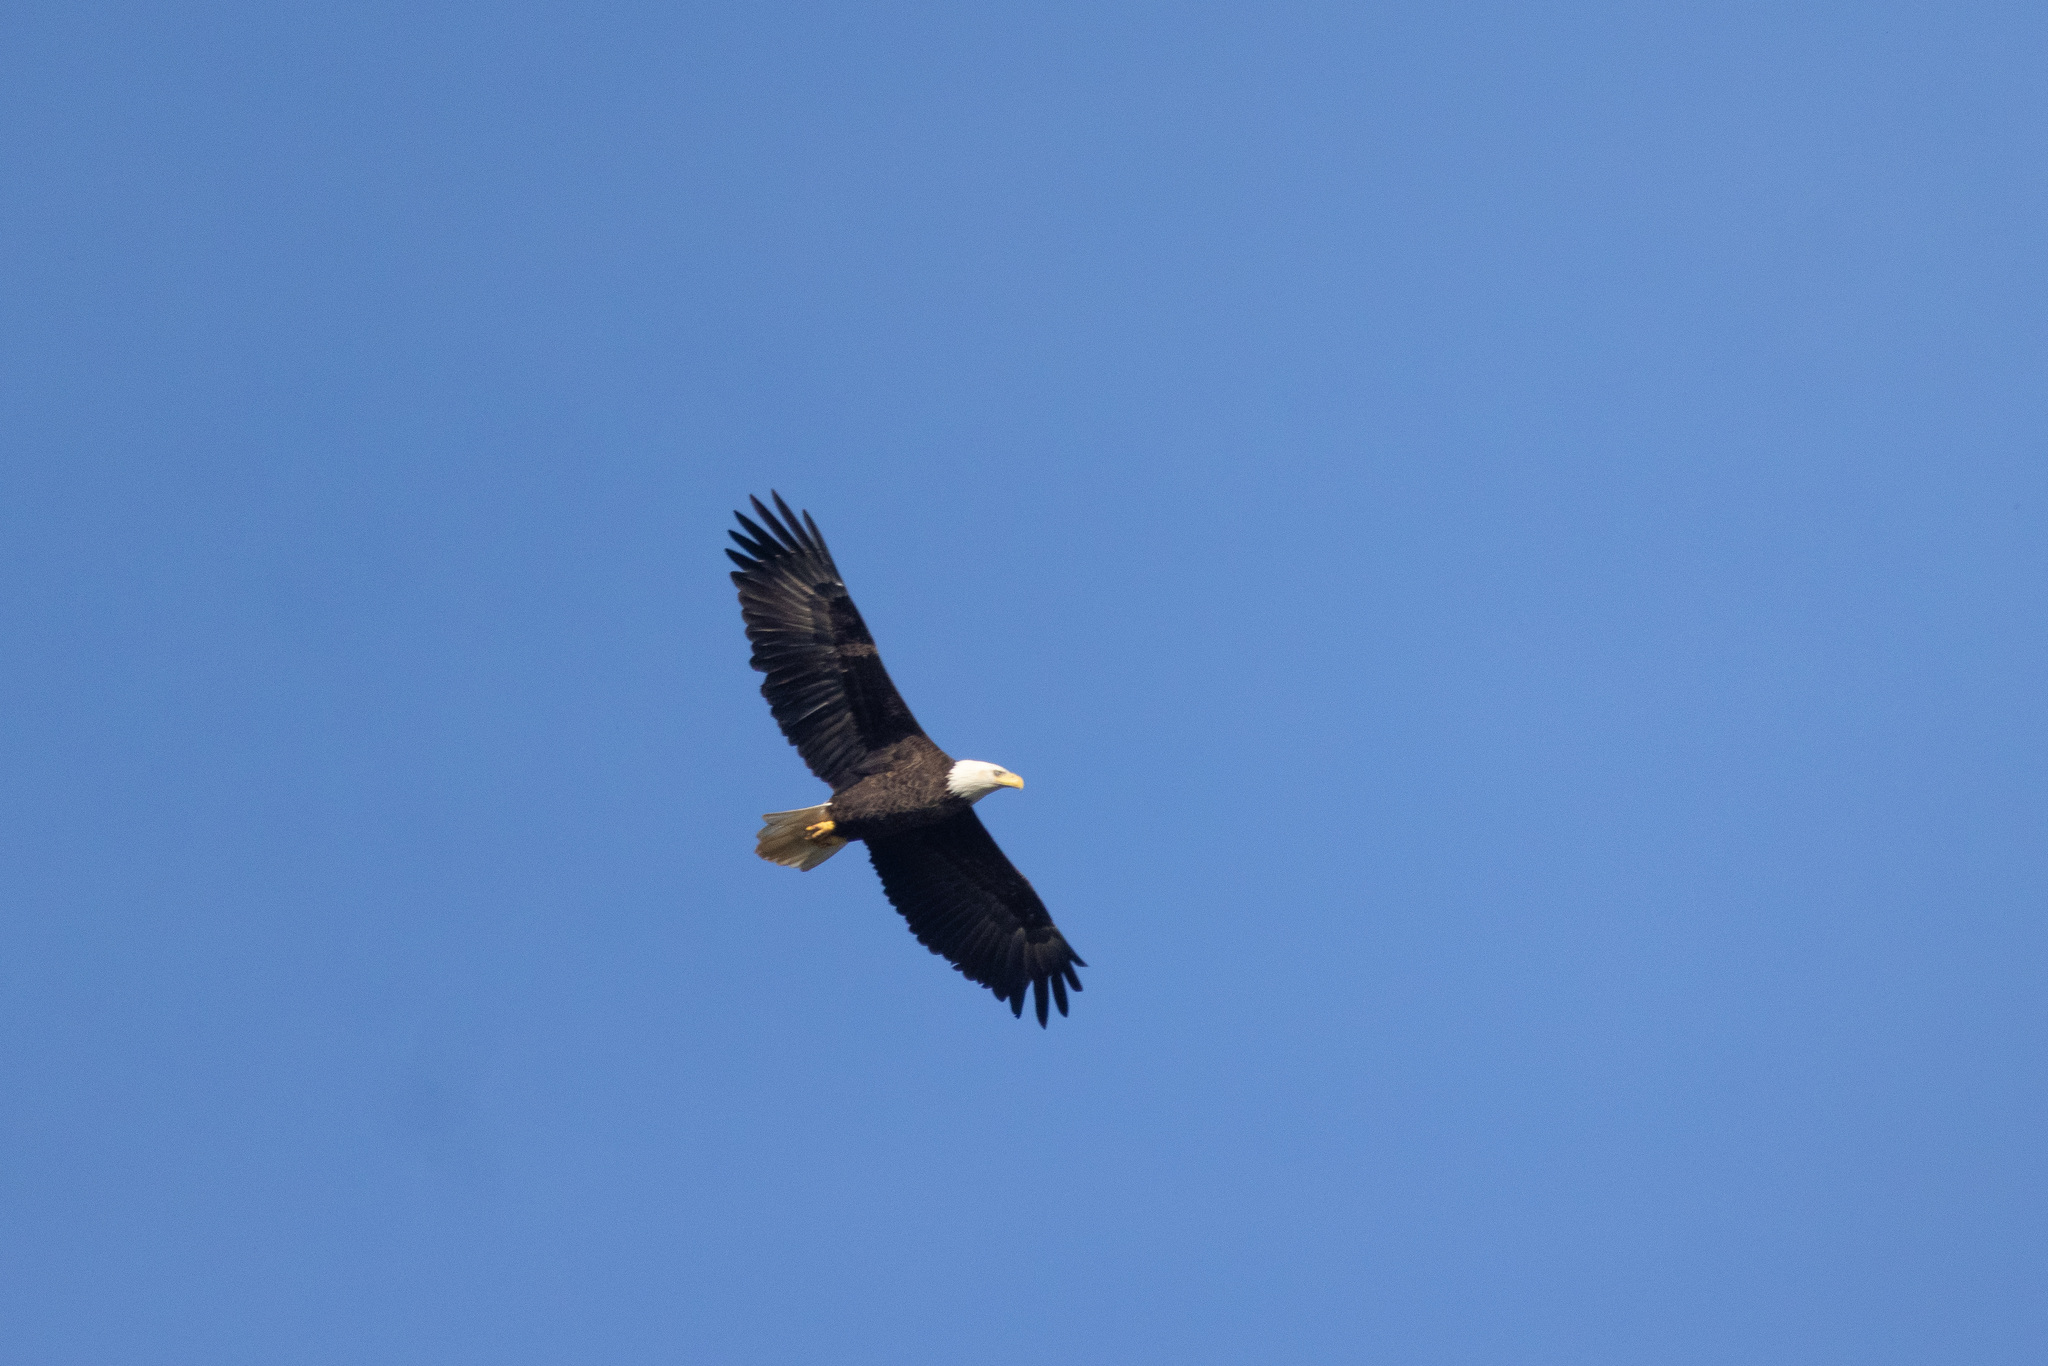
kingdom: Animalia
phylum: Chordata
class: Aves
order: Accipitriformes
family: Accipitridae
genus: Haliaeetus
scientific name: Haliaeetus leucocephalus
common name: Bald eagle
